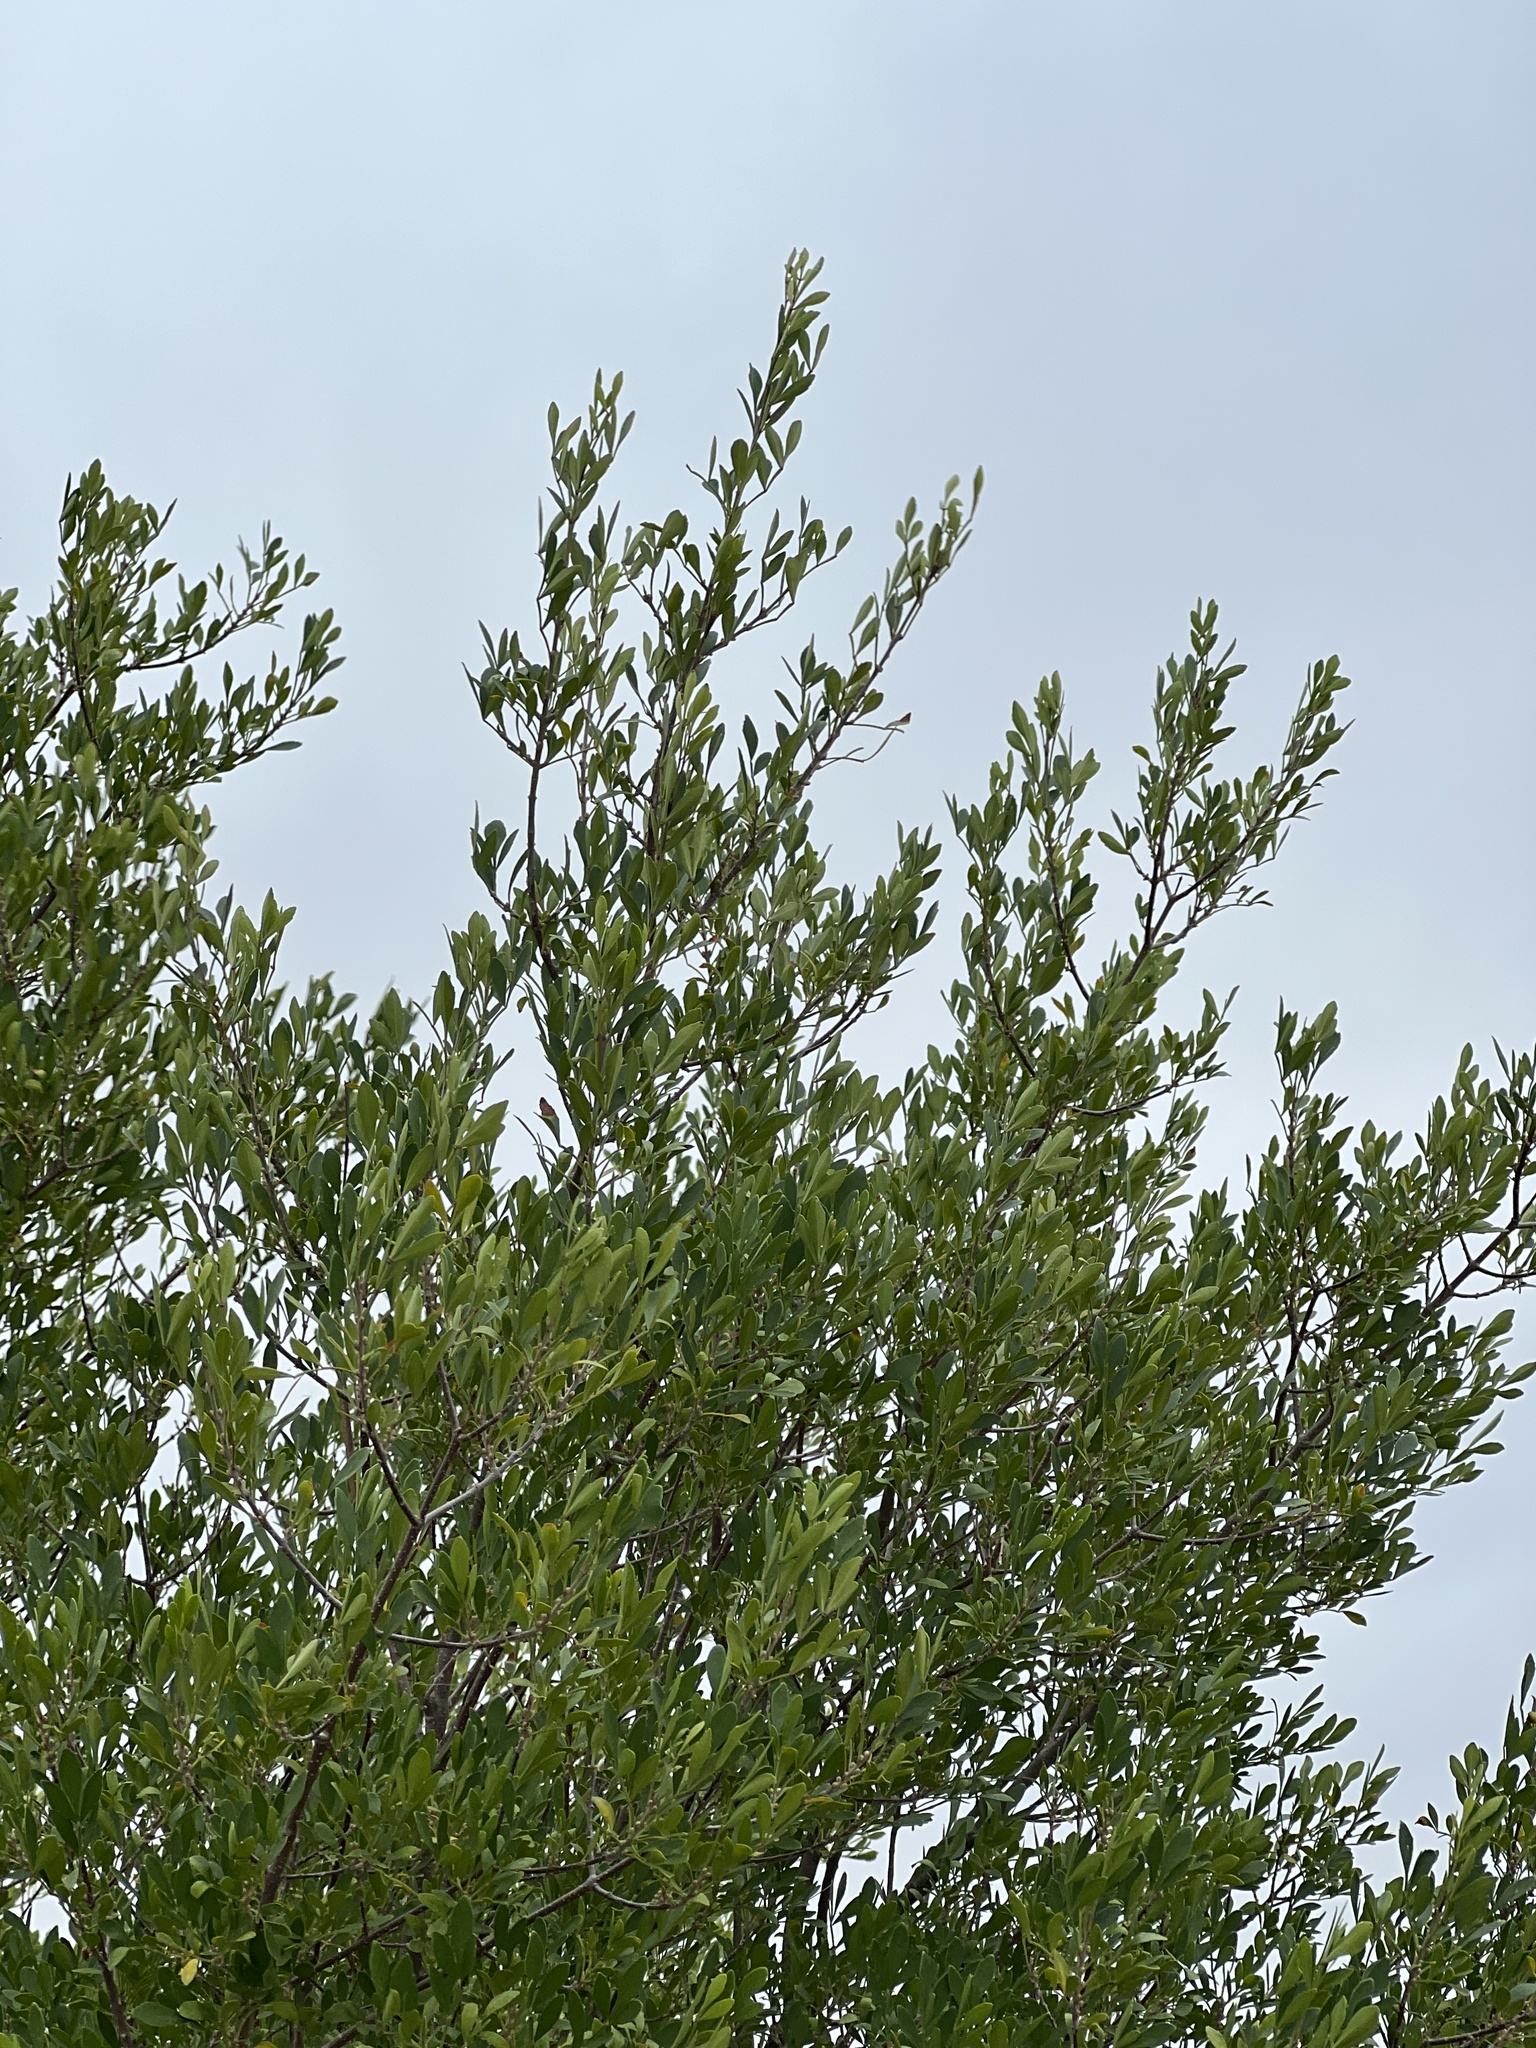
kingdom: Plantae
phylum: Tracheophyta
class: Magnoliopsida
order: Lamiales
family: Oleaceae
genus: Fraxinus
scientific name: Fraxinus greggii
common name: Gregg ash
